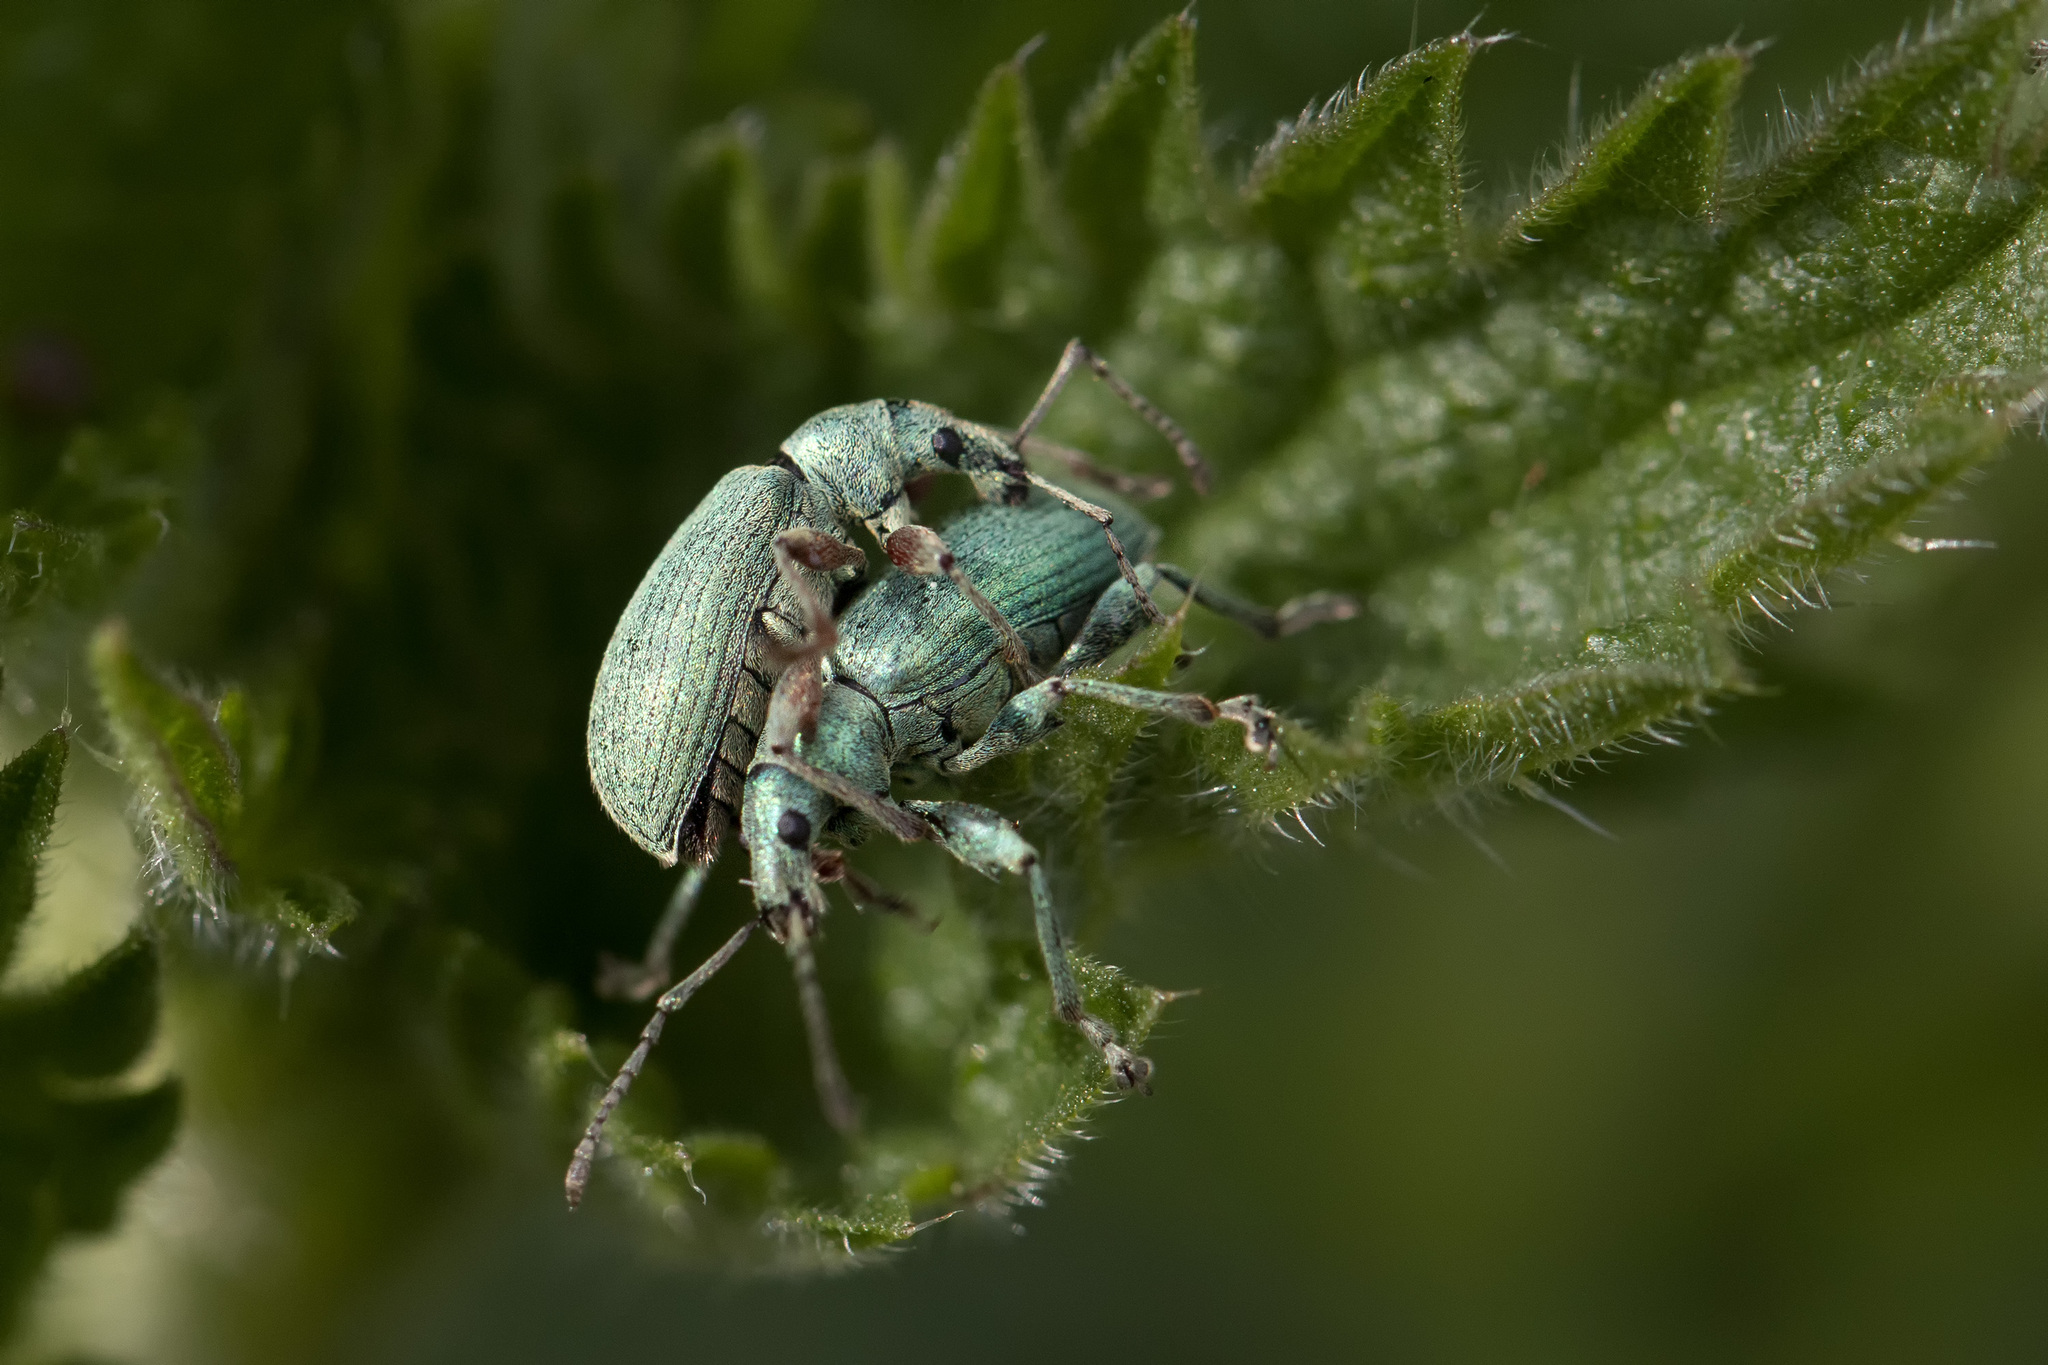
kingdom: Animalia
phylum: Arthropoda
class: Insecta
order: Coleoptera
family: Curculionidae
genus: Phyllobius
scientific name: Phyllobius pomaceus
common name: Green nettle weevil
